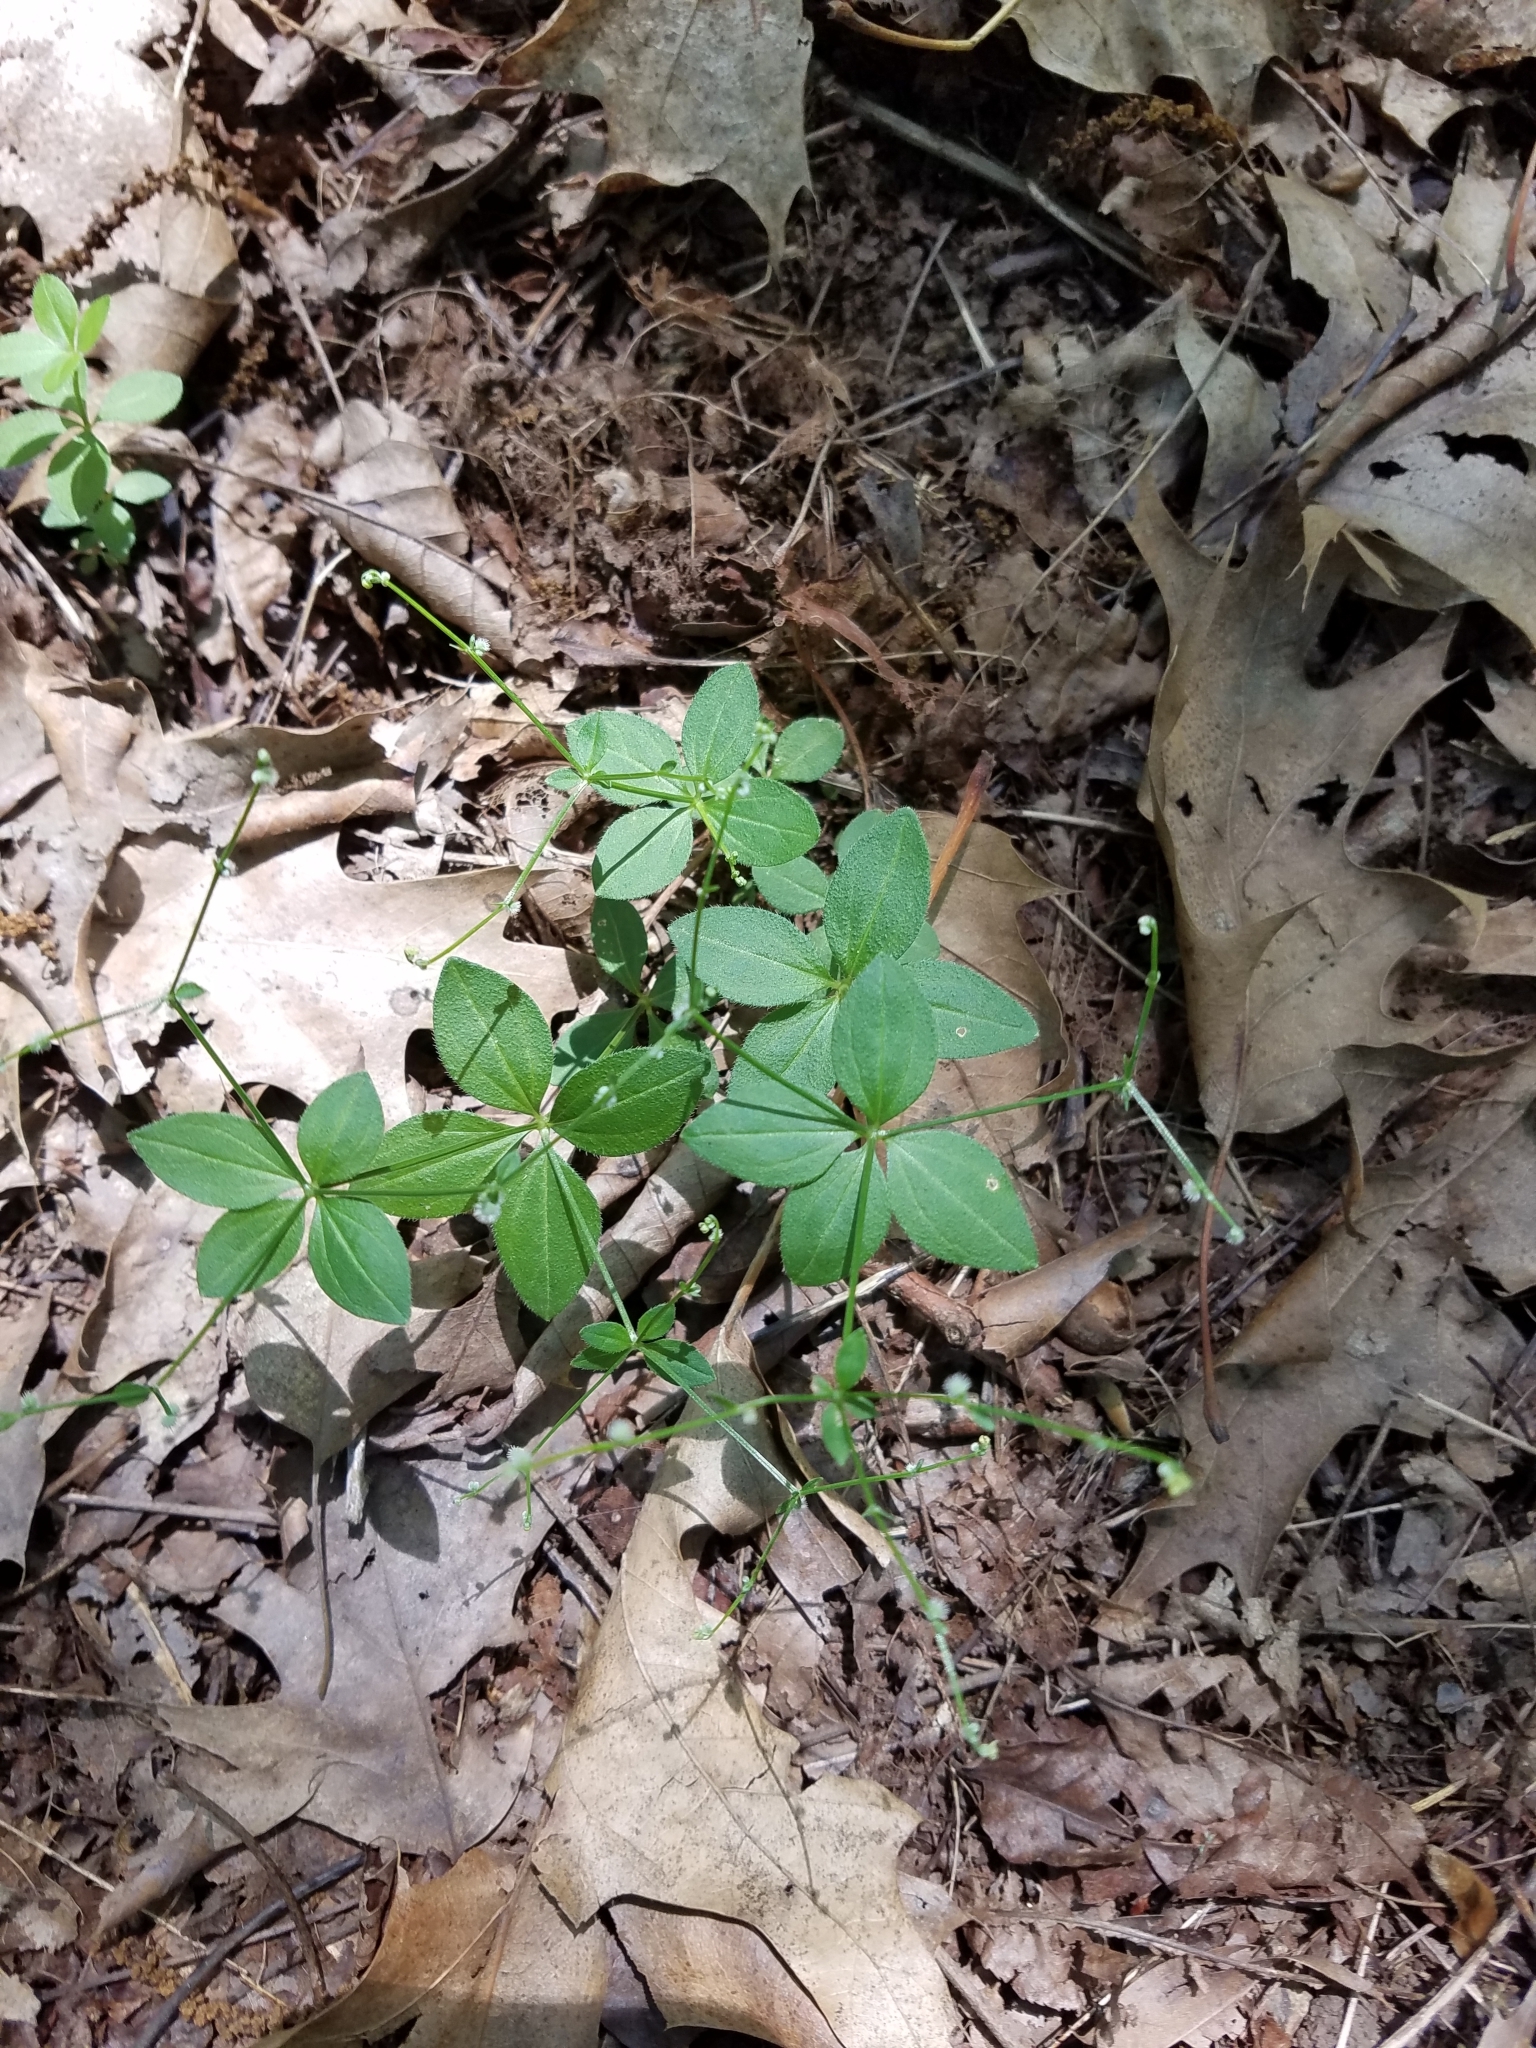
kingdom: Plantae
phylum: Tracheophyta
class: Magnoliopsida
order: Gentianales
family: Rubiaceae
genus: Galium
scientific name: Galium circaezans
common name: Forest bedstraw
